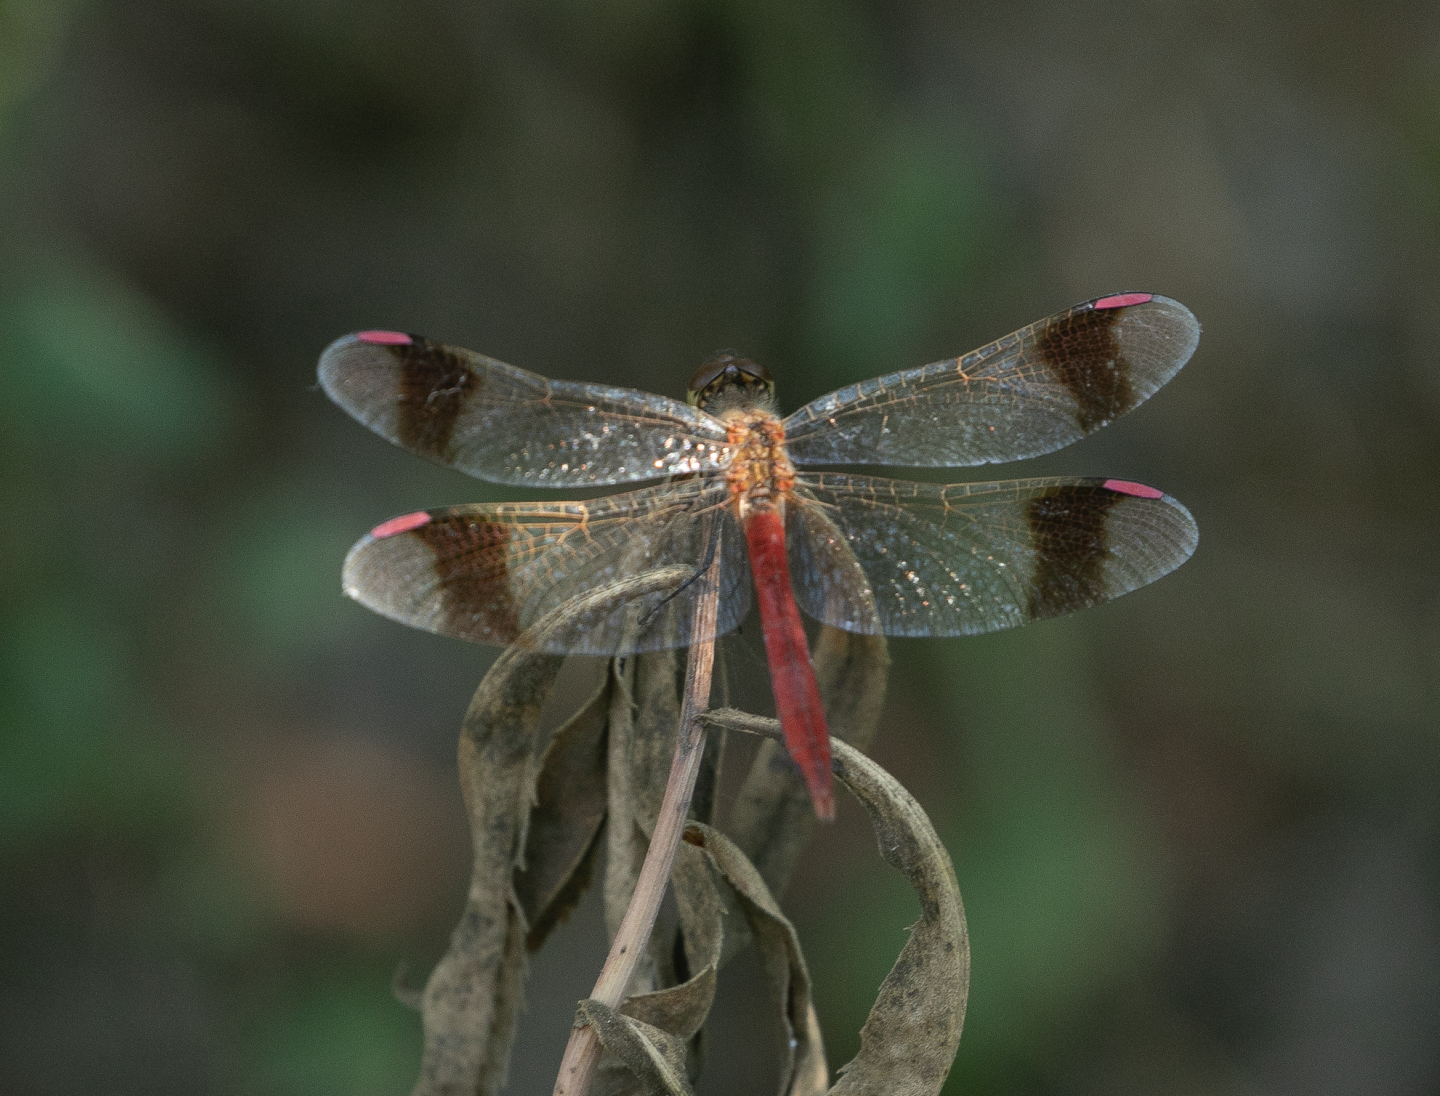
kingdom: Animalia
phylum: Arthropoda
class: Insecta
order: Odonata
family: Libellulidae
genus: Sympetrum
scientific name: Sympetrum pedemontanum
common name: Banded darter
